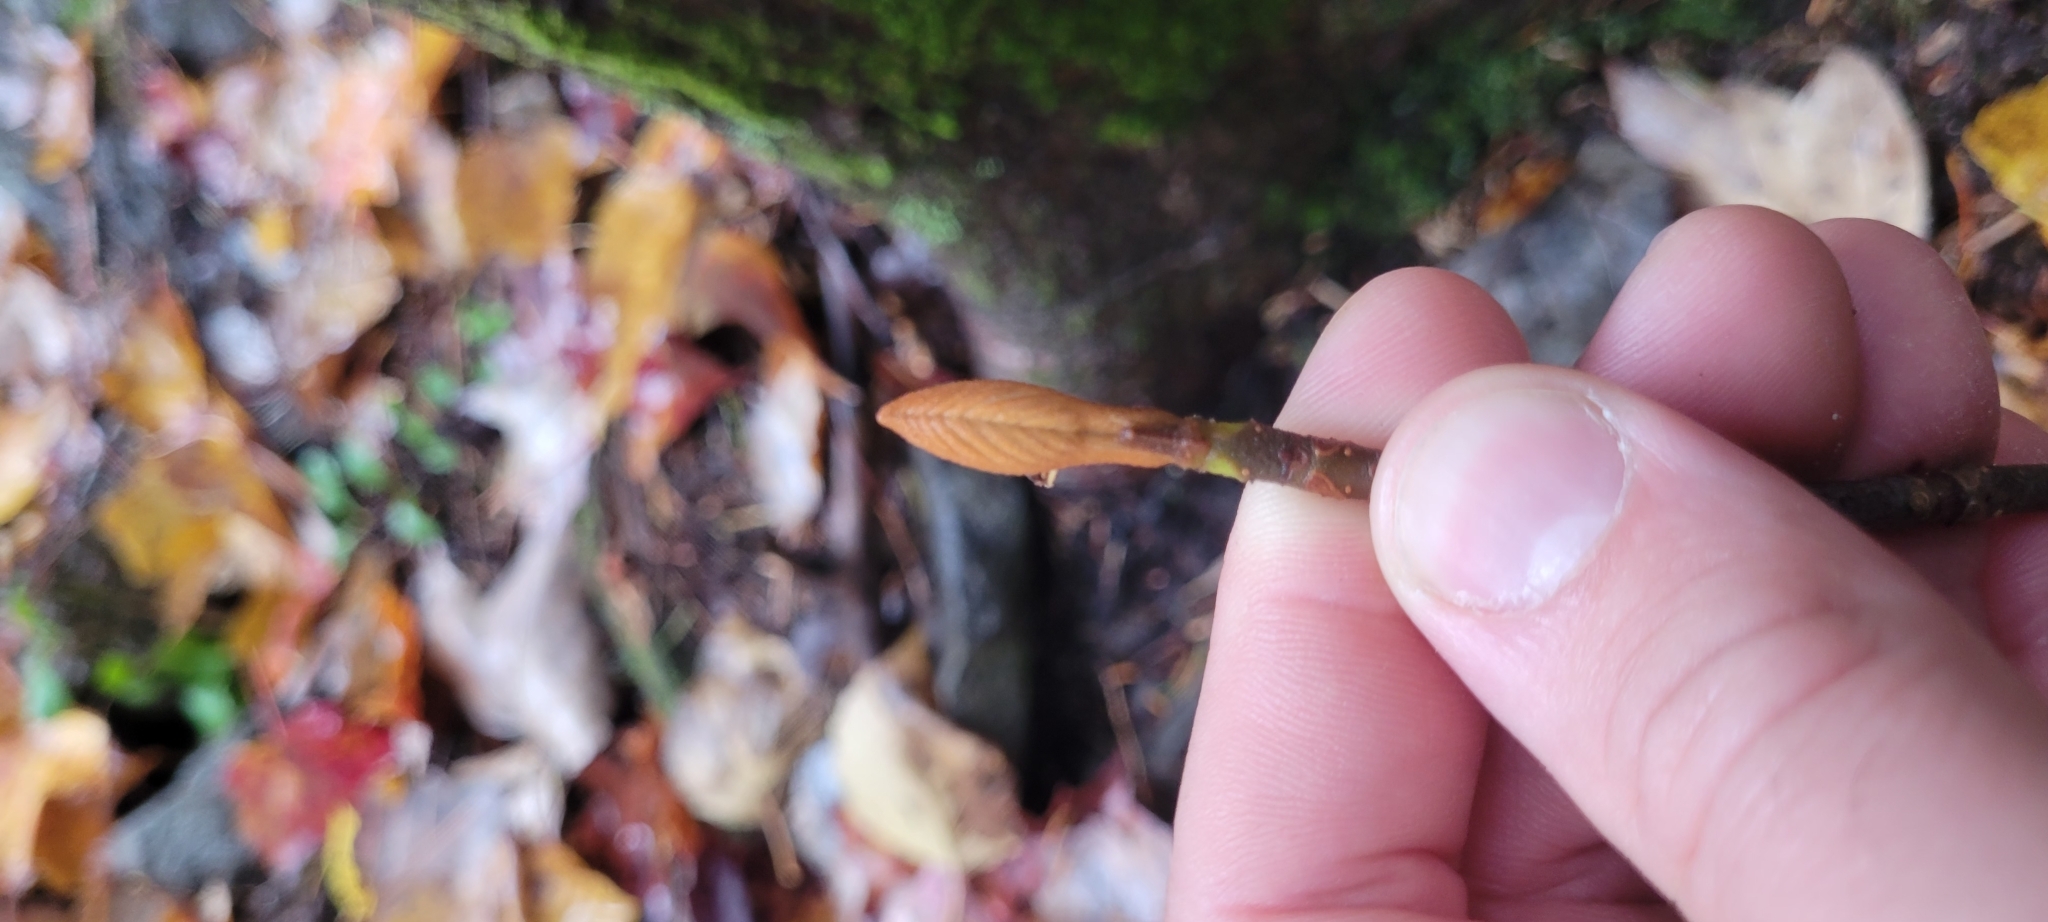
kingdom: Plantae
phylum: Tracheophyta
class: Magnoliopsida
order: Dipsacales
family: Viburnaceae
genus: Viburnum
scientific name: Viburnum lantanoides
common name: Hobblebush
